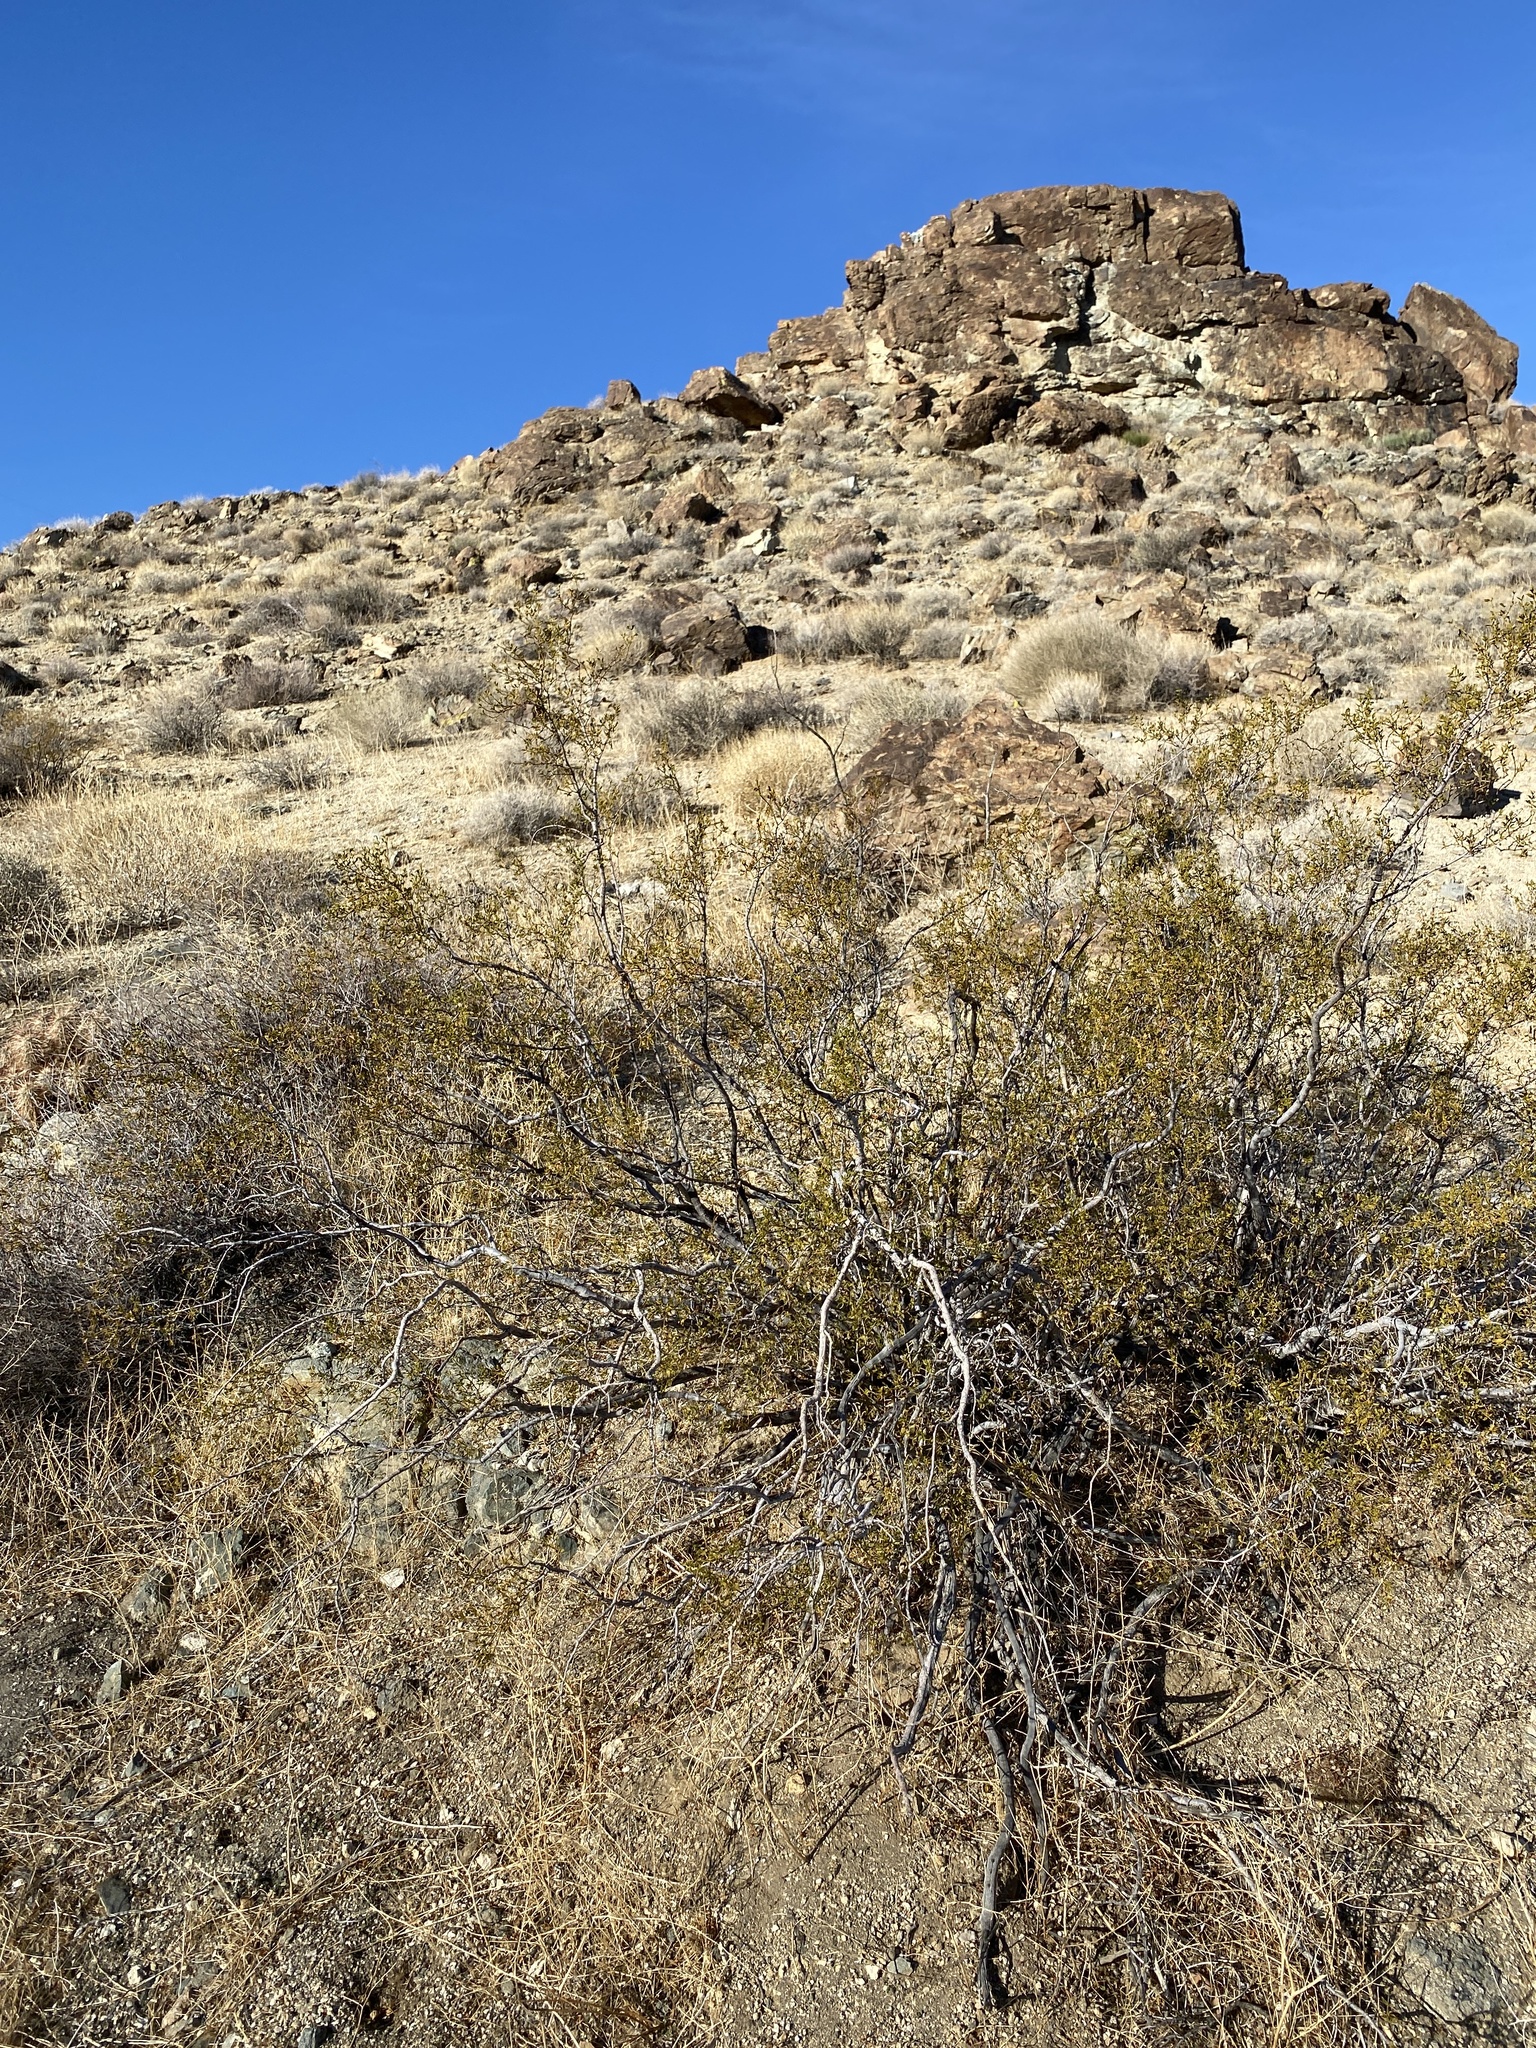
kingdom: Plantae
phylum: Tracheophyta
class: Magnoliopsida
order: Zygophyllales
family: Zygophyllaceae
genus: Larrea
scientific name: Larrea tridentata
